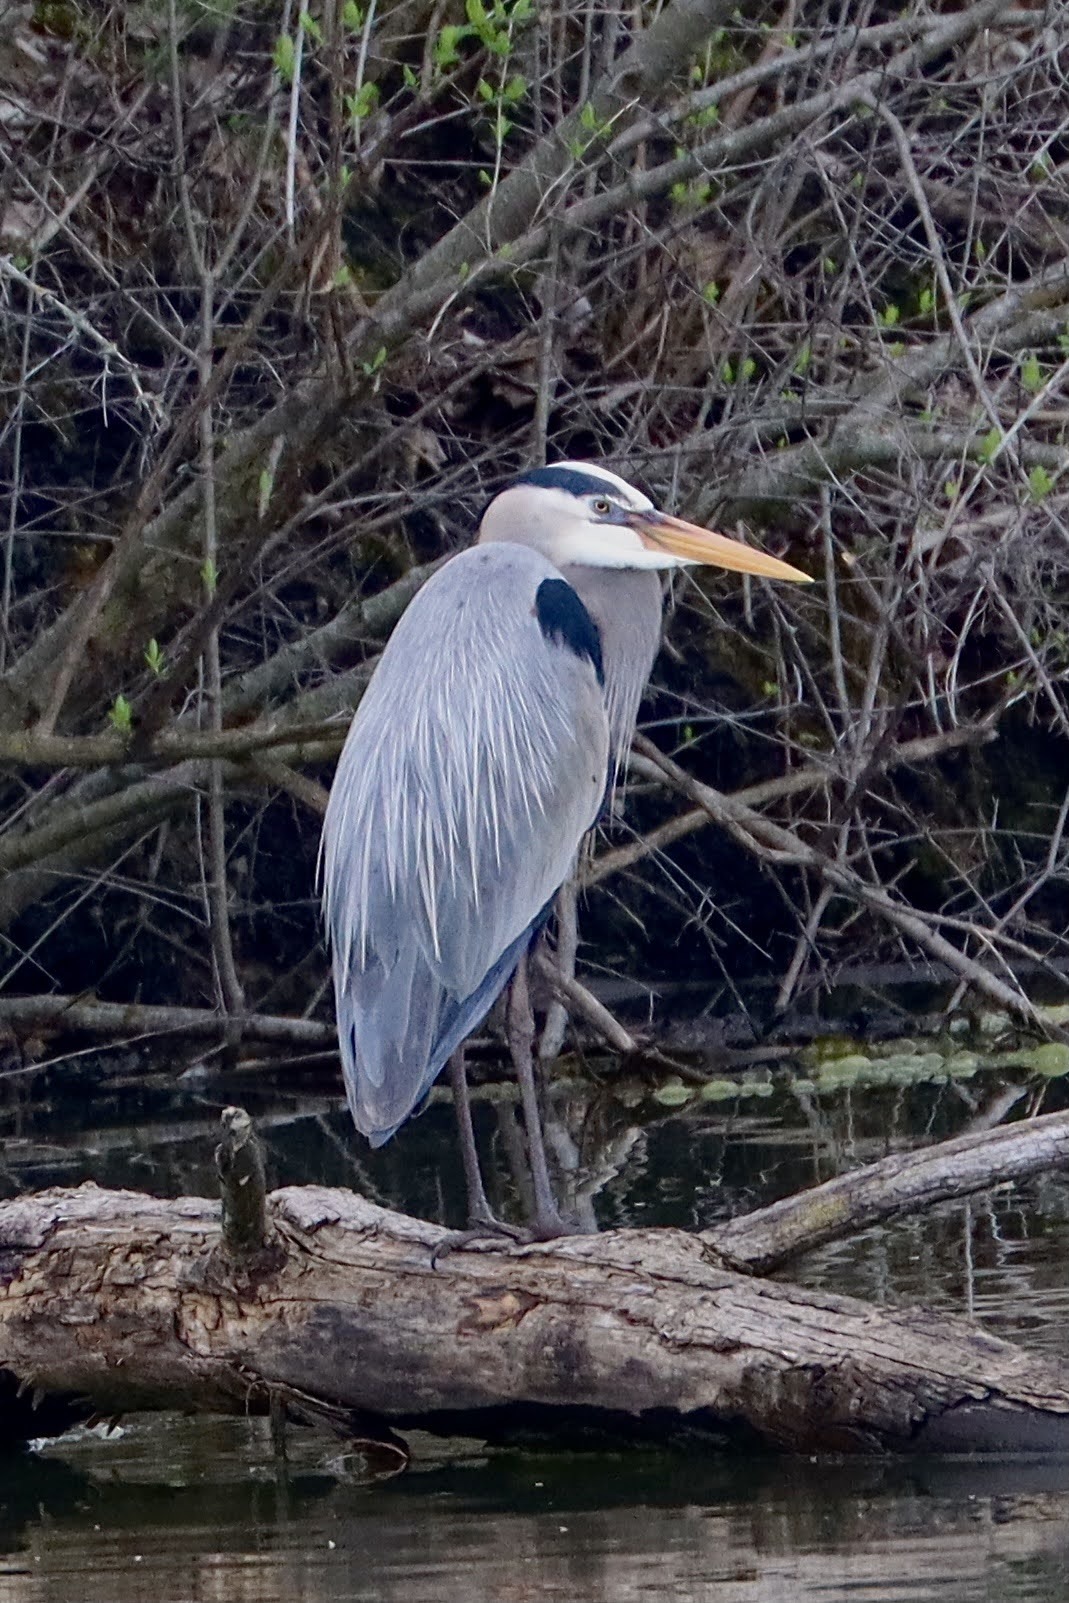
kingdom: Animalia
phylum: Chordata
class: Aves
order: Pelecaniformes
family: Ardeidae
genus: Ardea
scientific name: Ardea herodias
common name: Great blue heron
